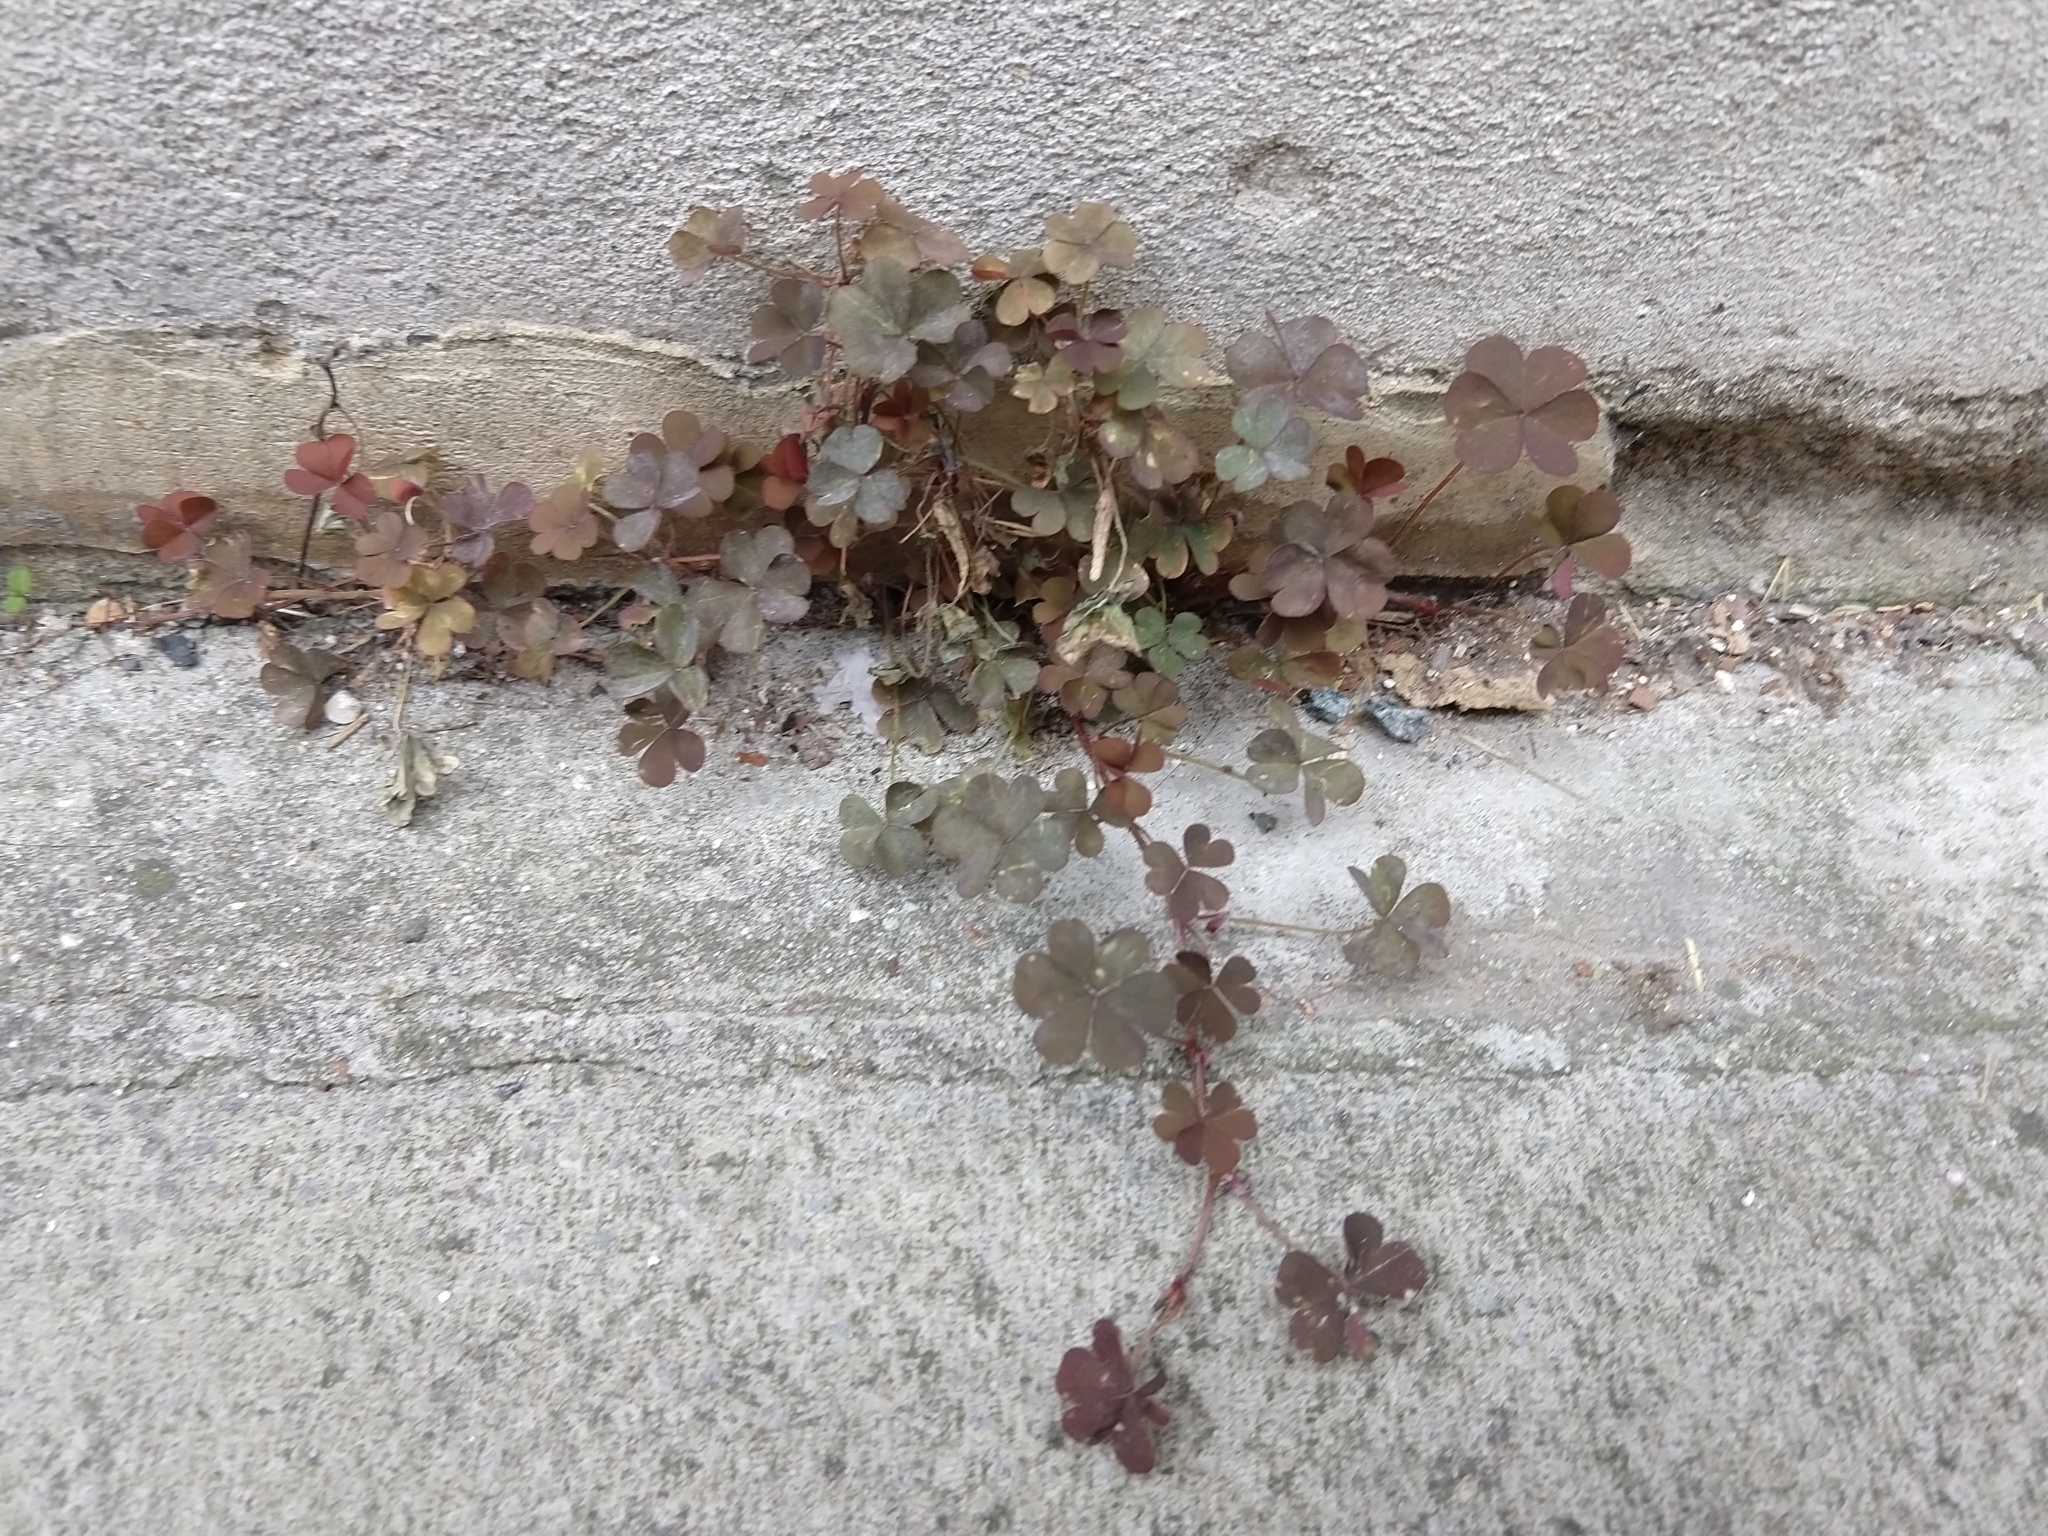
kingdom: Plantae
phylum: Tracheophyta
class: Magnoliopsida
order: Oxalidales
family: Oxalidaceae
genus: Oxalis
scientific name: Oxalis corniculata
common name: Procumbent yellow-sorrel
